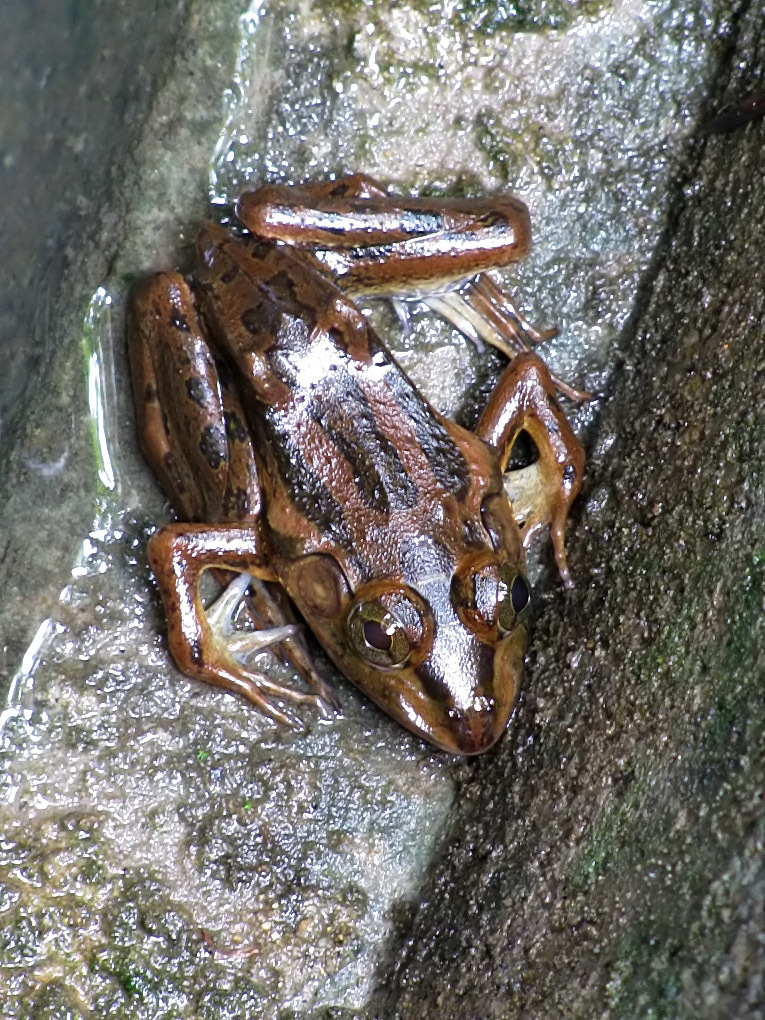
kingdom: Animalia
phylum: Chordata
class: Amphibia
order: Anura
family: Dicroglossidae
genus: Hoplobatrachus
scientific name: Hoplobatrachus tigerinus
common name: Indian bullfrog
